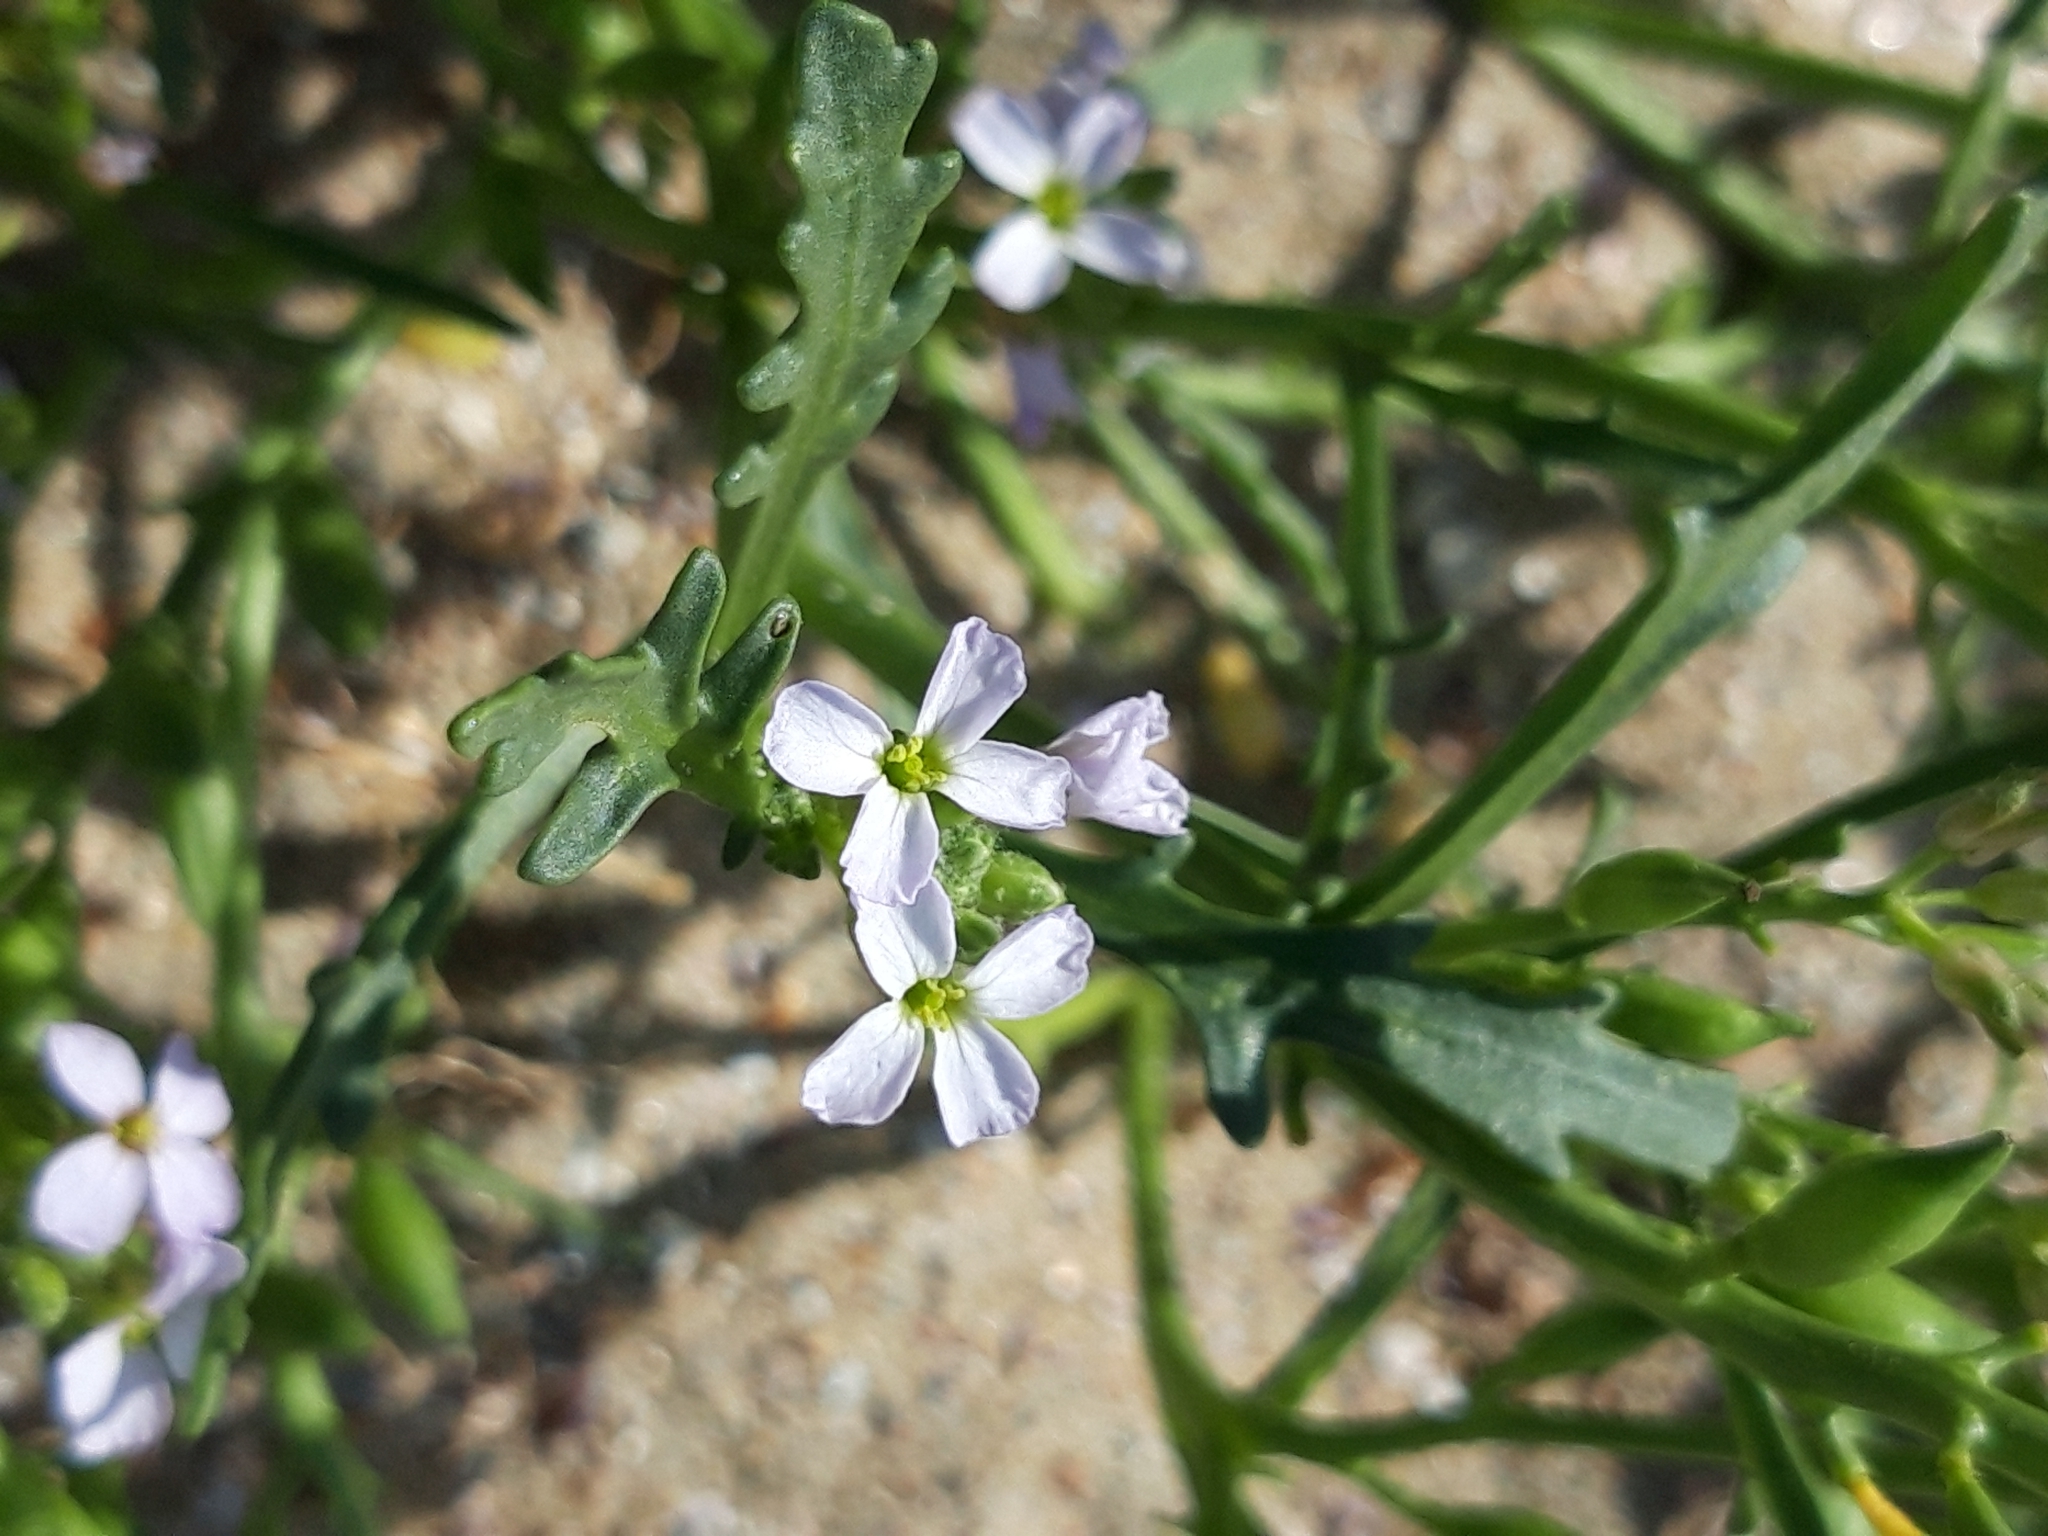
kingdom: Plantae
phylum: Tracheophyta
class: Magnoliopsida
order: Brassicales
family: Brassicaceae
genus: Cakile
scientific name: Cakile maritima
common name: Sea rocket
